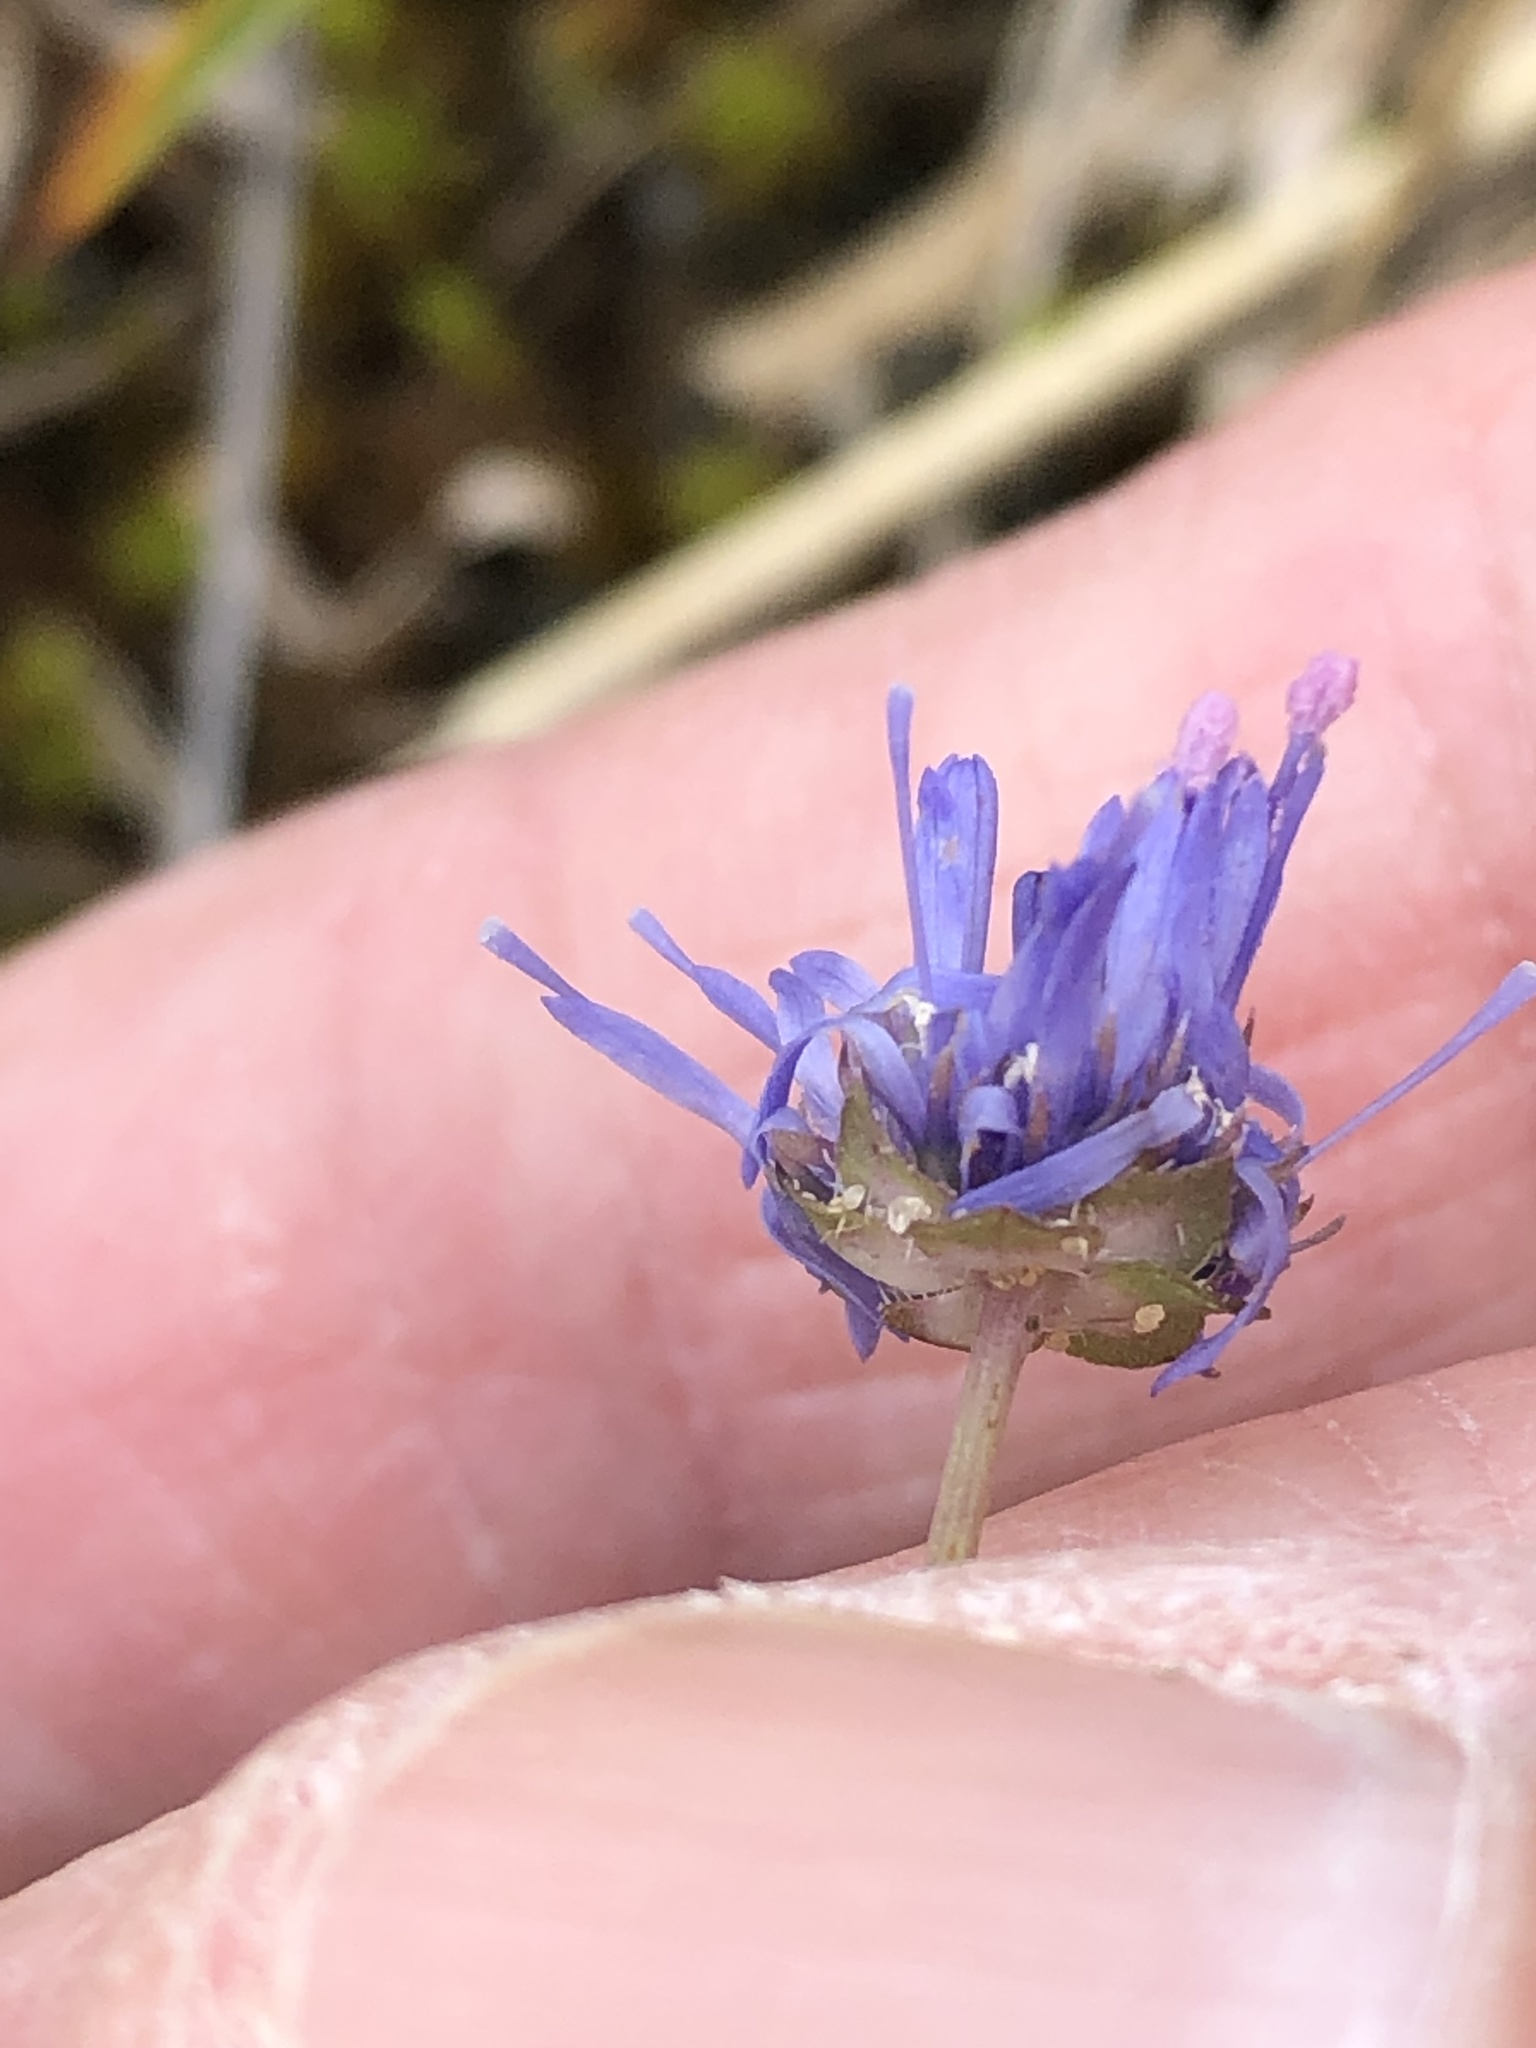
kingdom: Plantae
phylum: Tracheophyta
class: Magnoliopsida
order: Asterales
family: Campanulaceae
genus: Jasione
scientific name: Jasione montana
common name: Sheep's-bit
